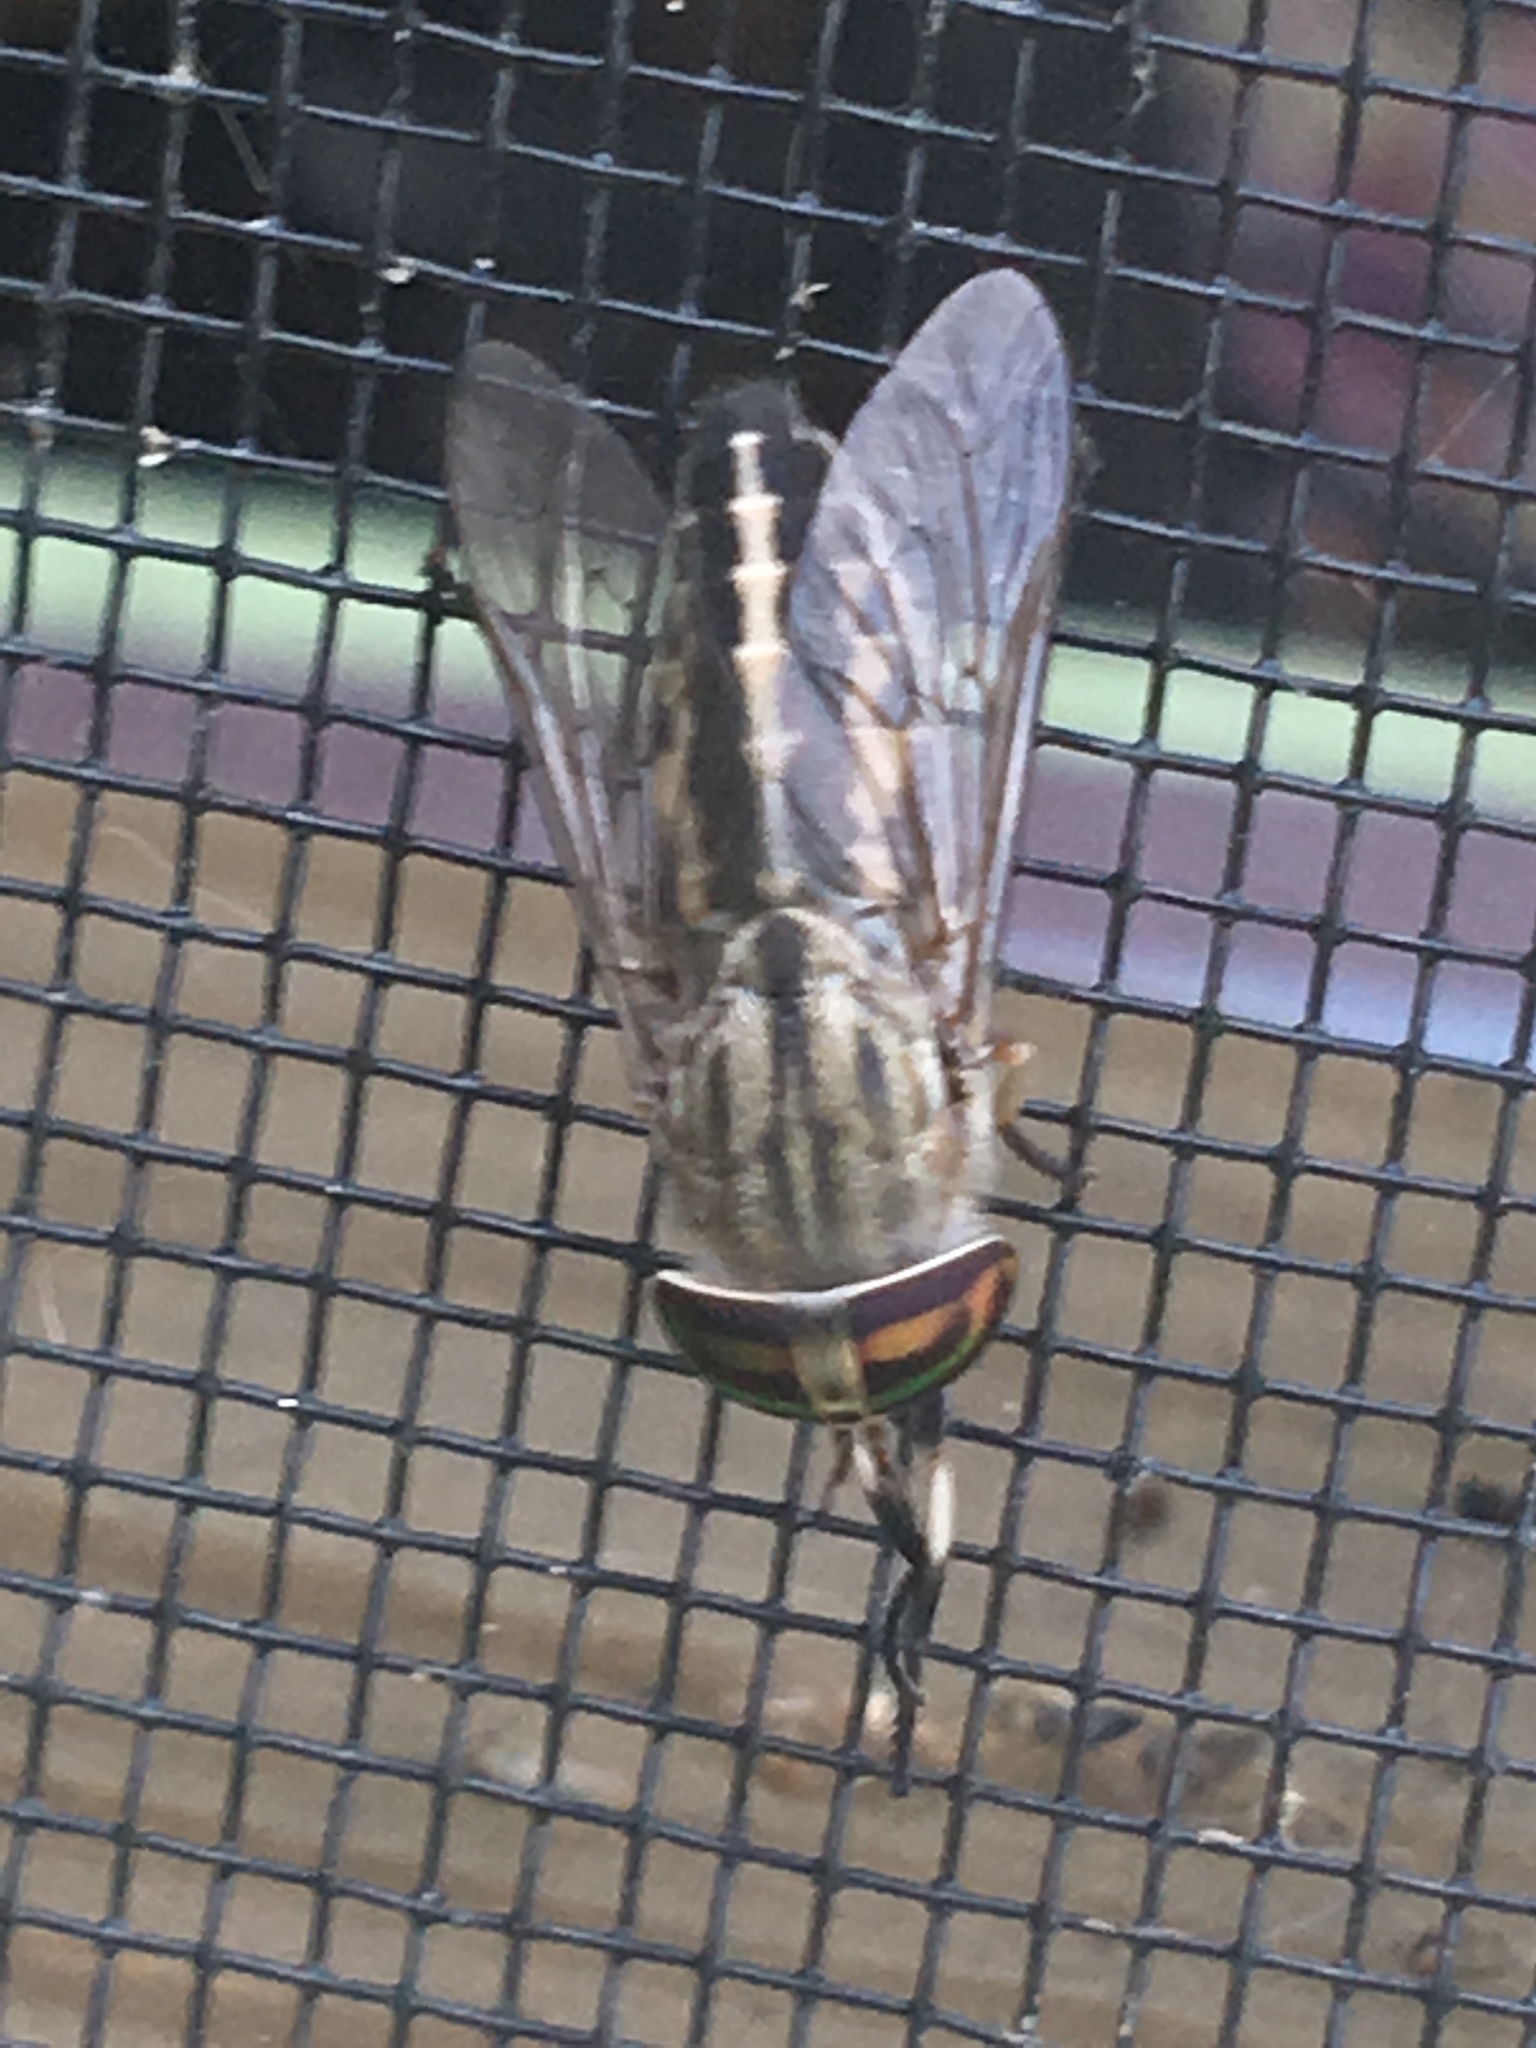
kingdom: Animalia
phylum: Arthropoda
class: Insecta
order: Diptera
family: Tabanidae
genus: Tabanus
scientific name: Tabanus subsimilis
